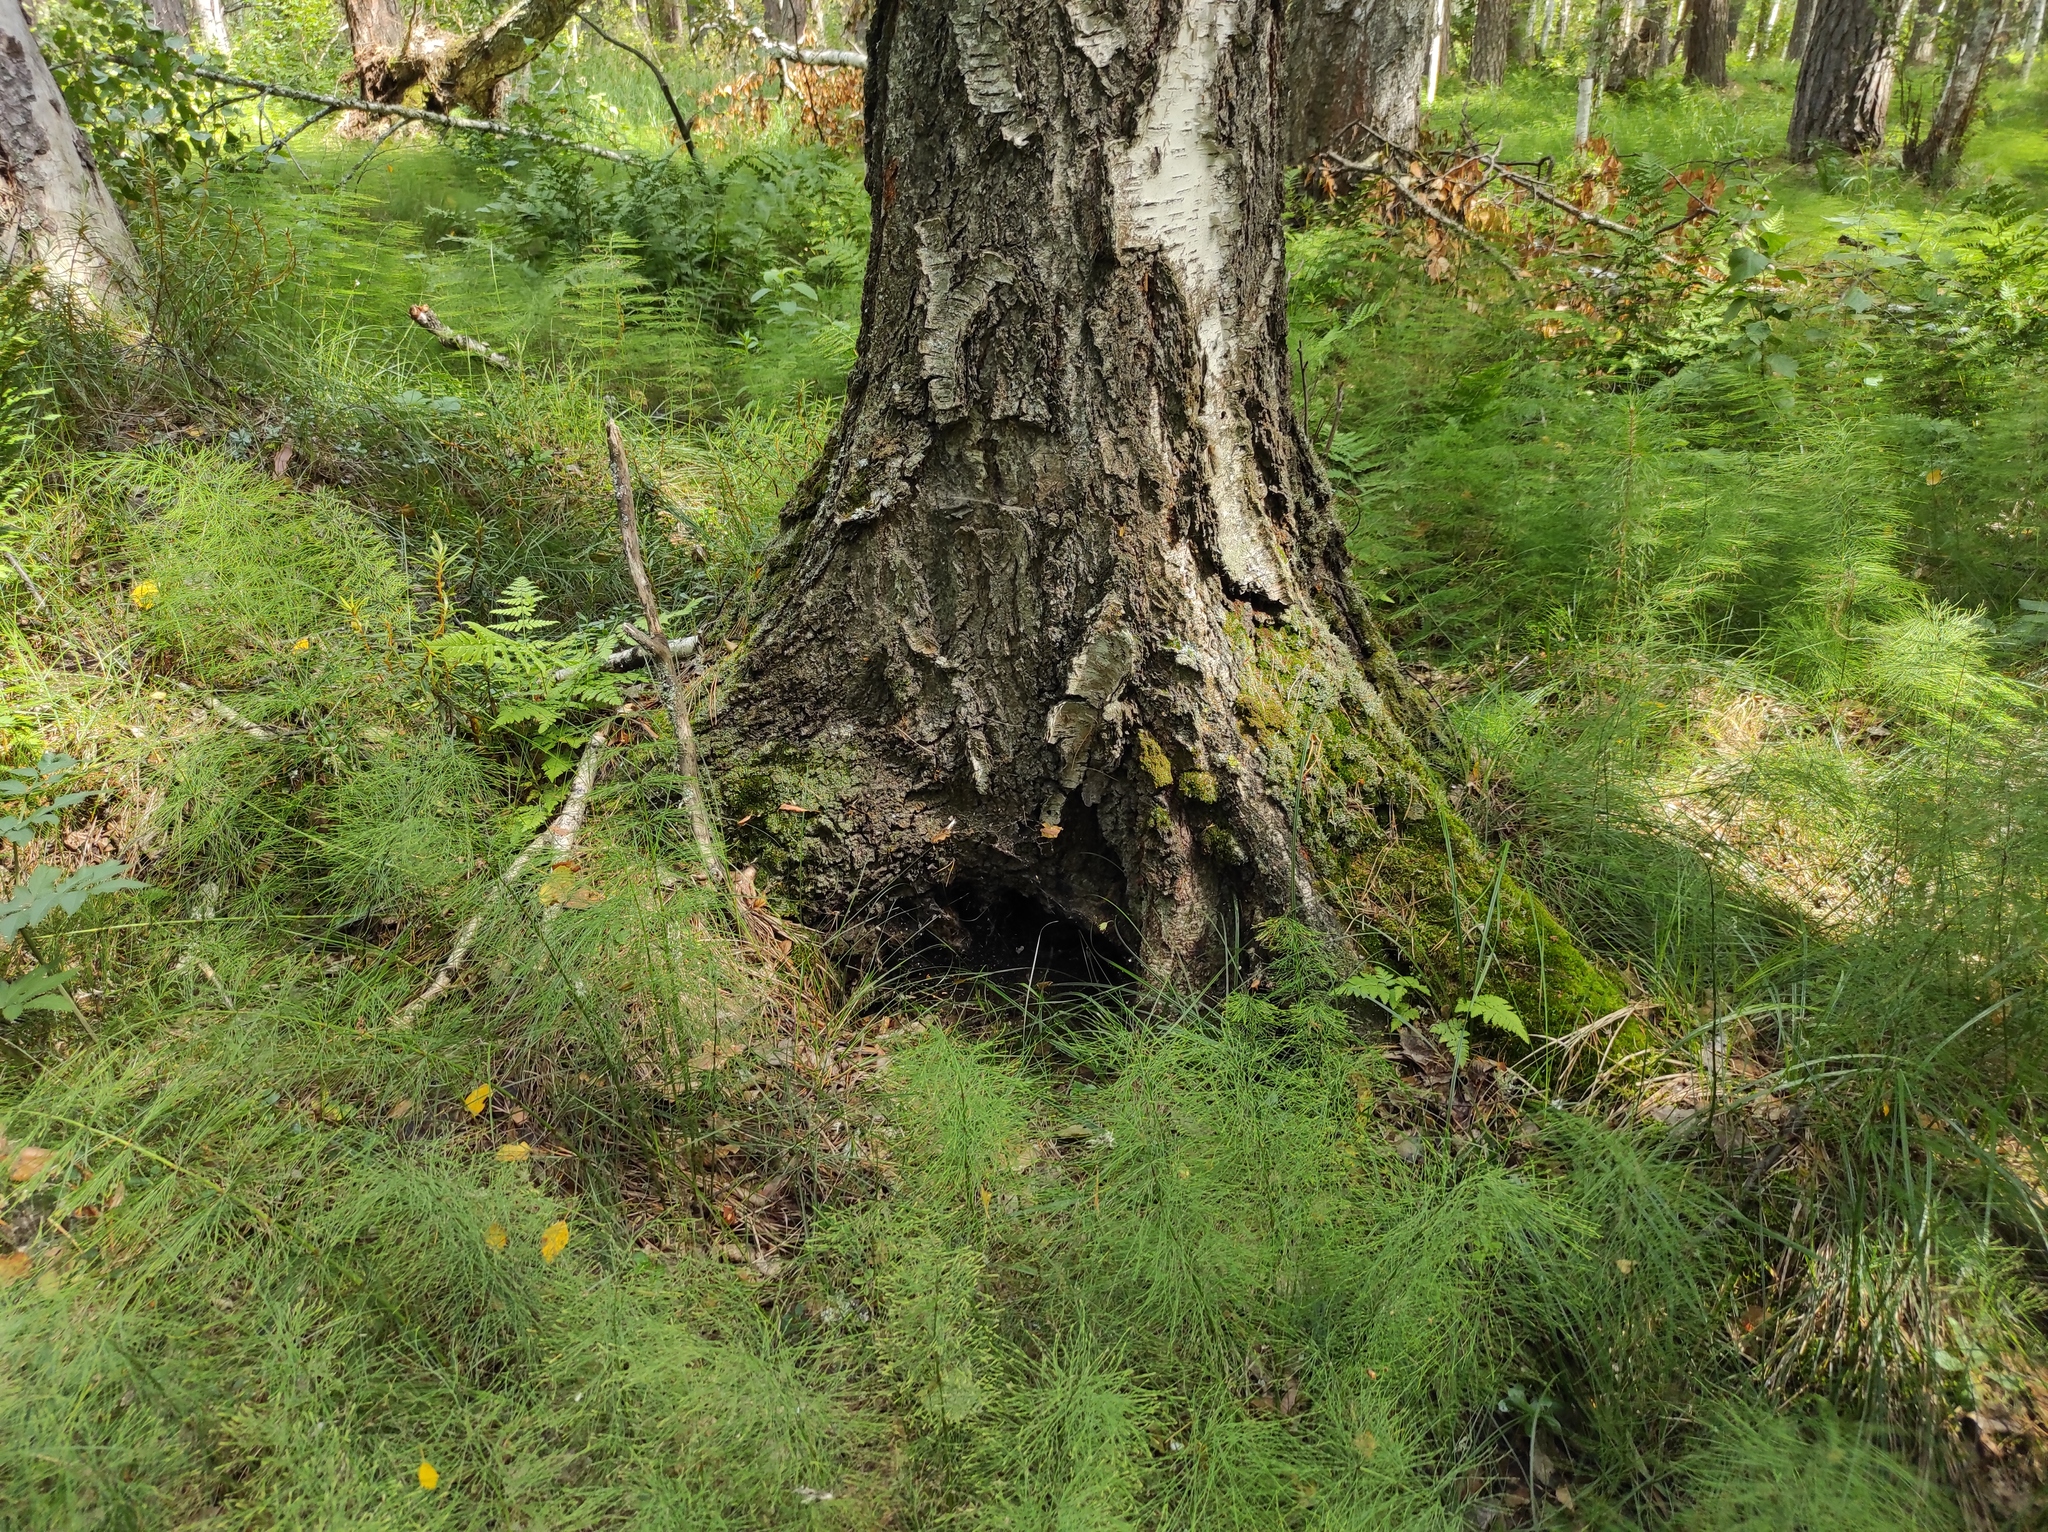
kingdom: Plantae
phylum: Tracheophyta
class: Polypodiopsida
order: Equisetales
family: Equisetaceae
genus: Equisetum
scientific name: Equisetum sylvaticum
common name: Wood horsetail
